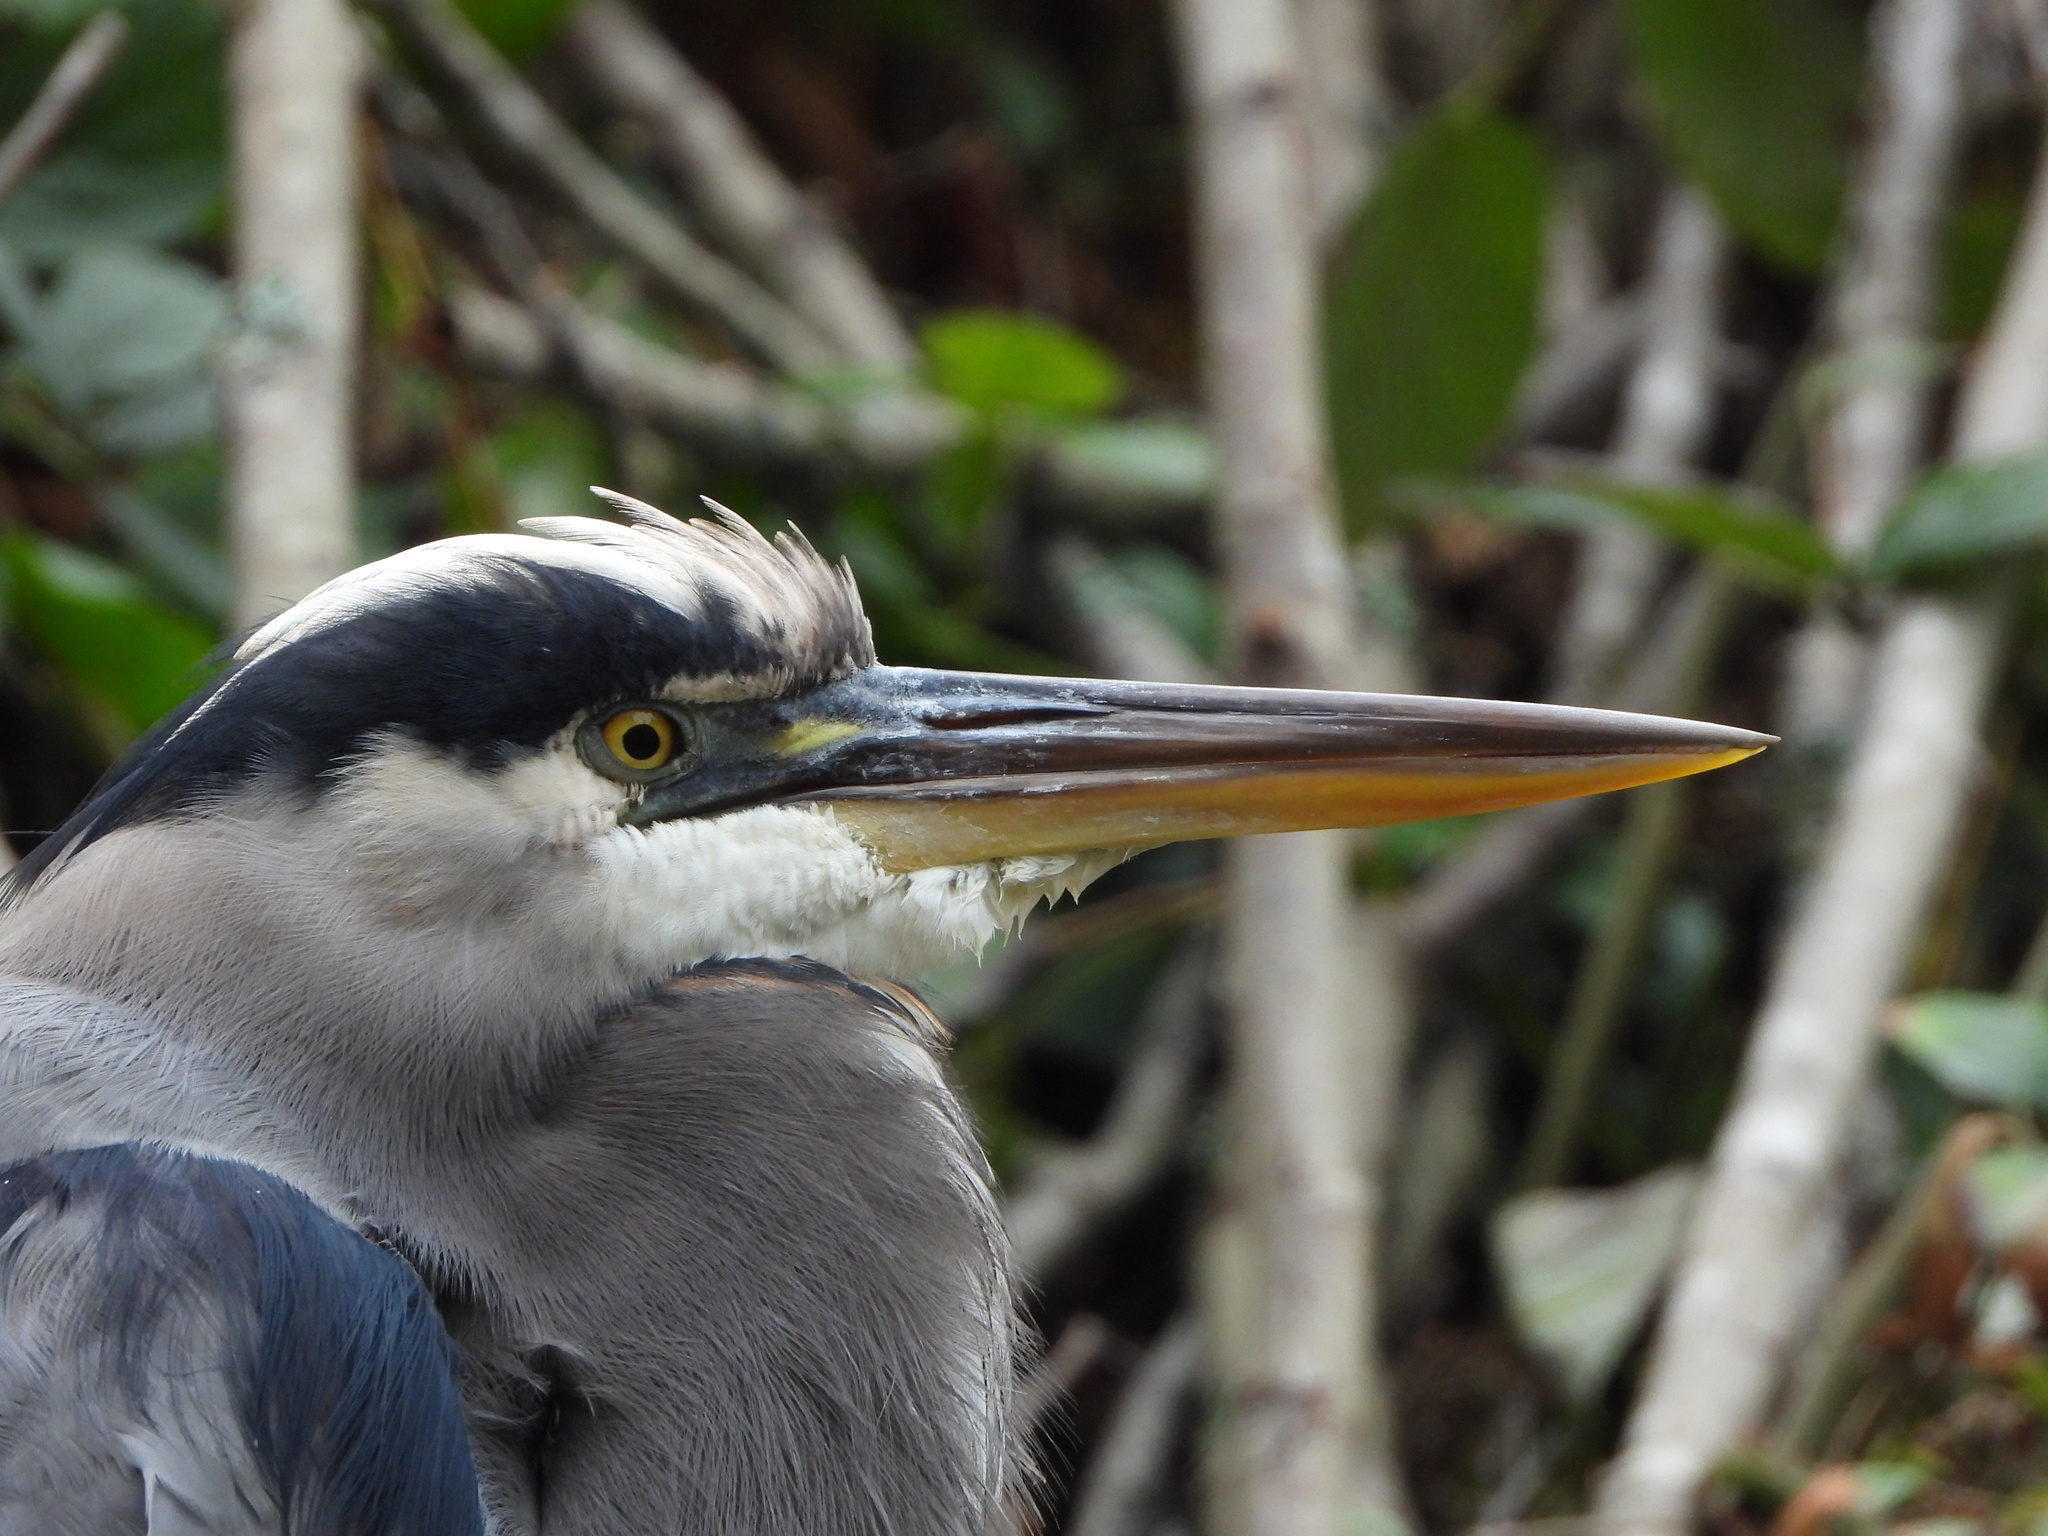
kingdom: Animalia
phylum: Chordata
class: Aves
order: Pelecaniformes
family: Ardeidae
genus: Ardea
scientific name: Ardea herodias
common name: Great blue heron
